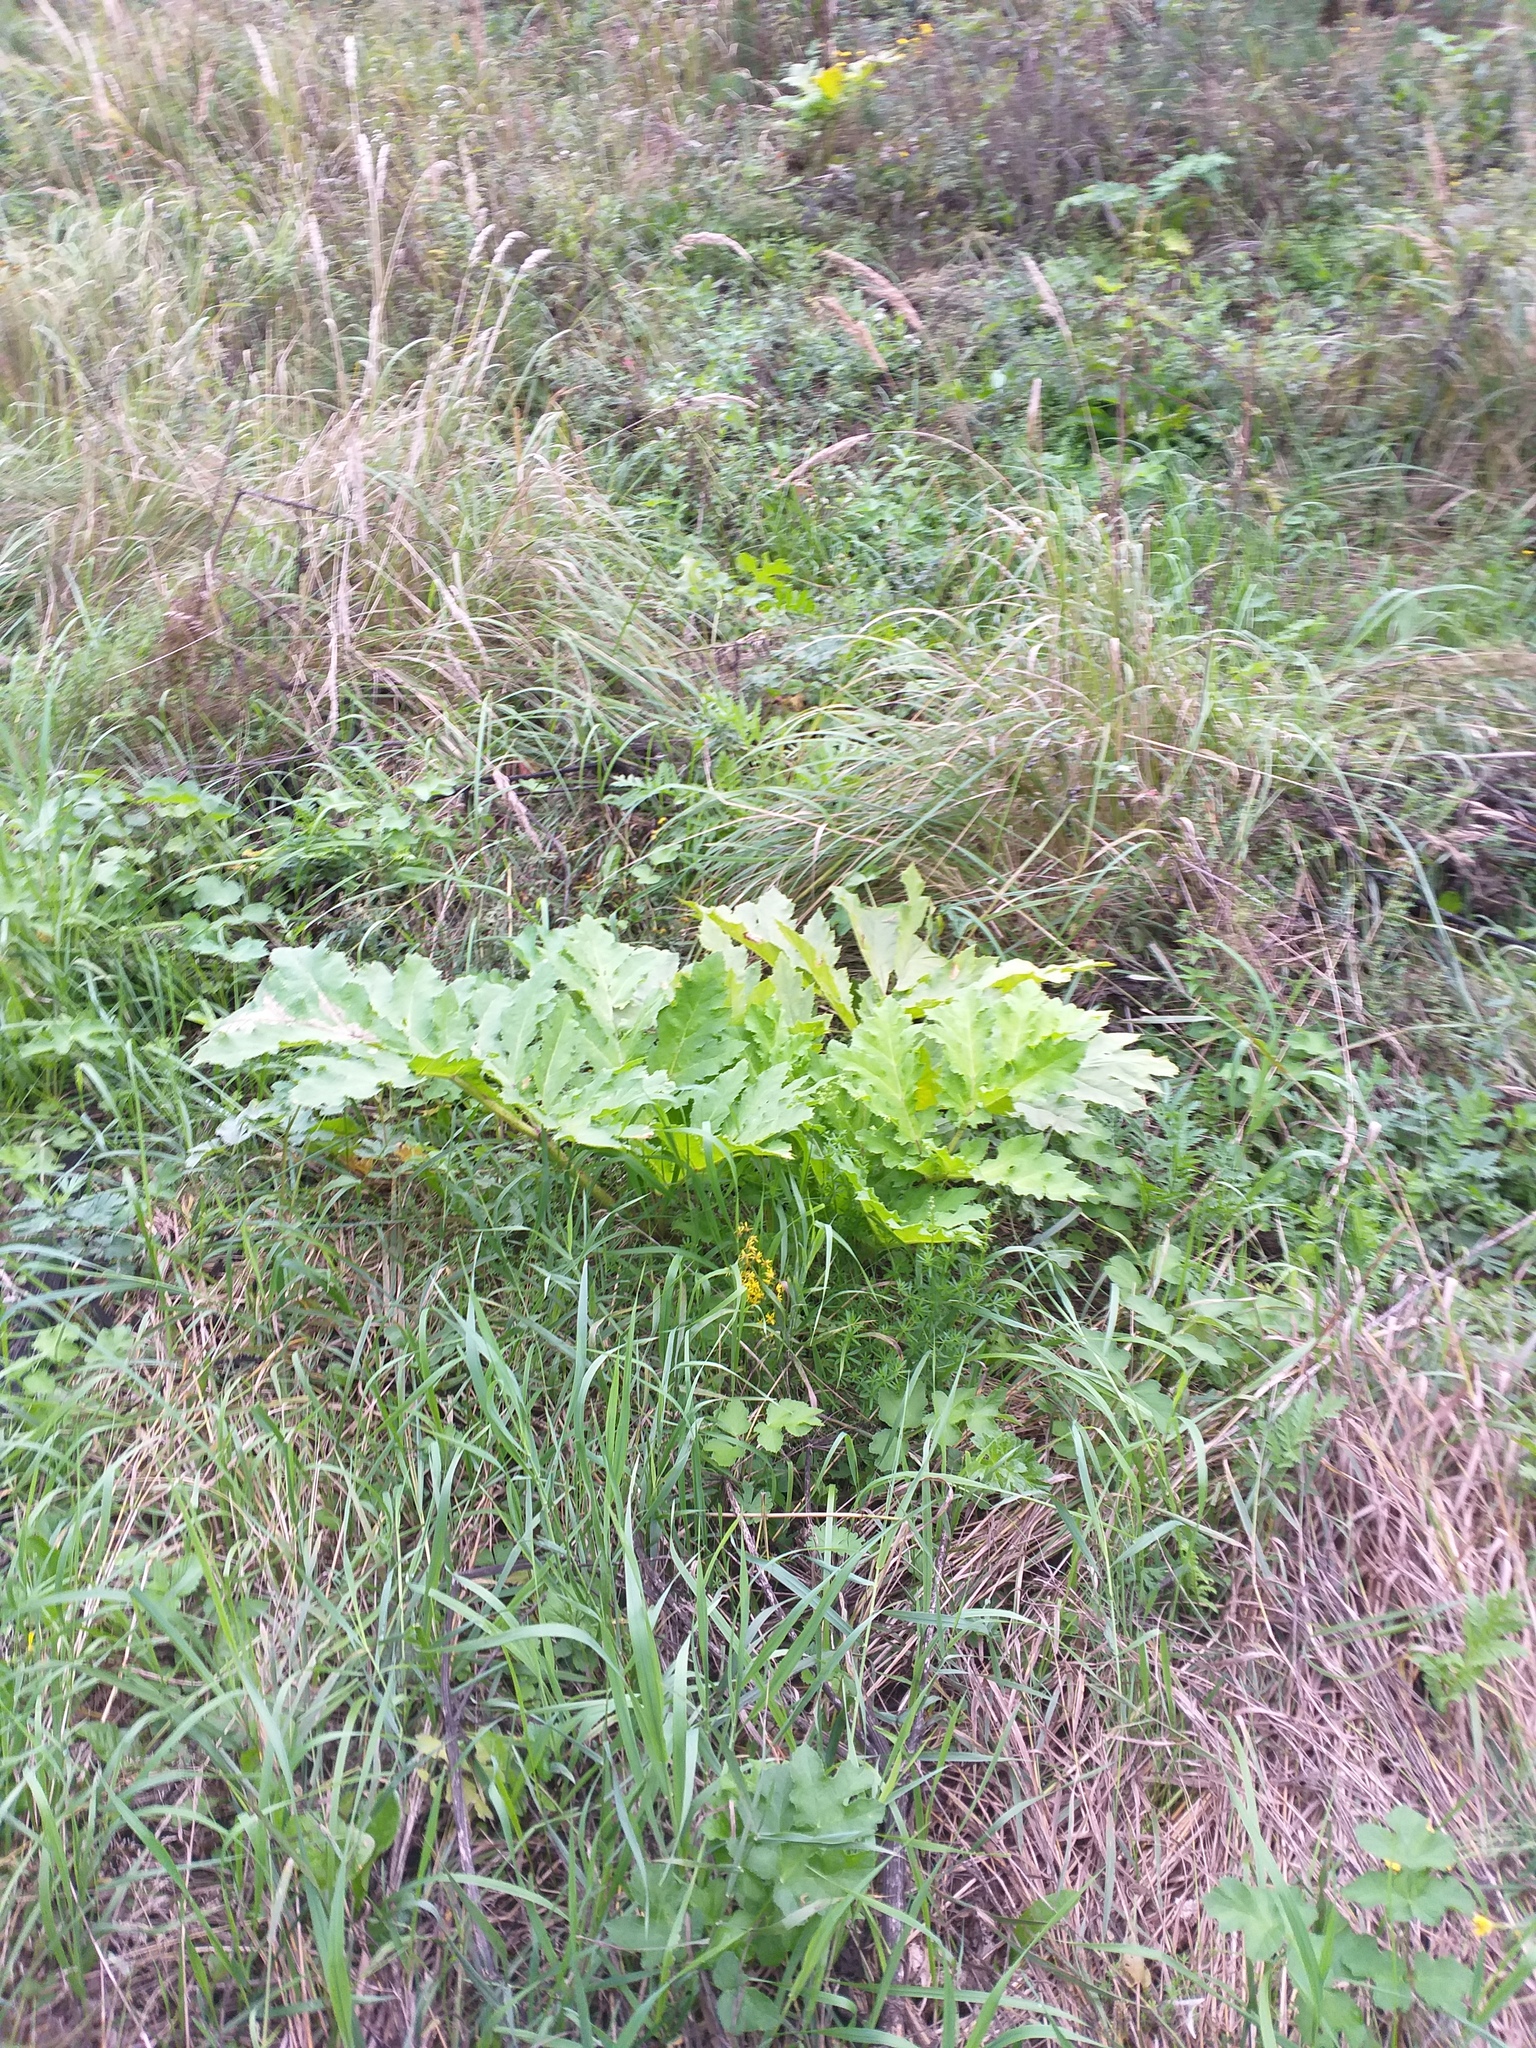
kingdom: Plantae
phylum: Tracheophyta
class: Magnoliopsida
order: Apiales
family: Apiaceae
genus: Heracleum
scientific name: Heracleum sosnowskyi
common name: Sosnowsky's hogweed
